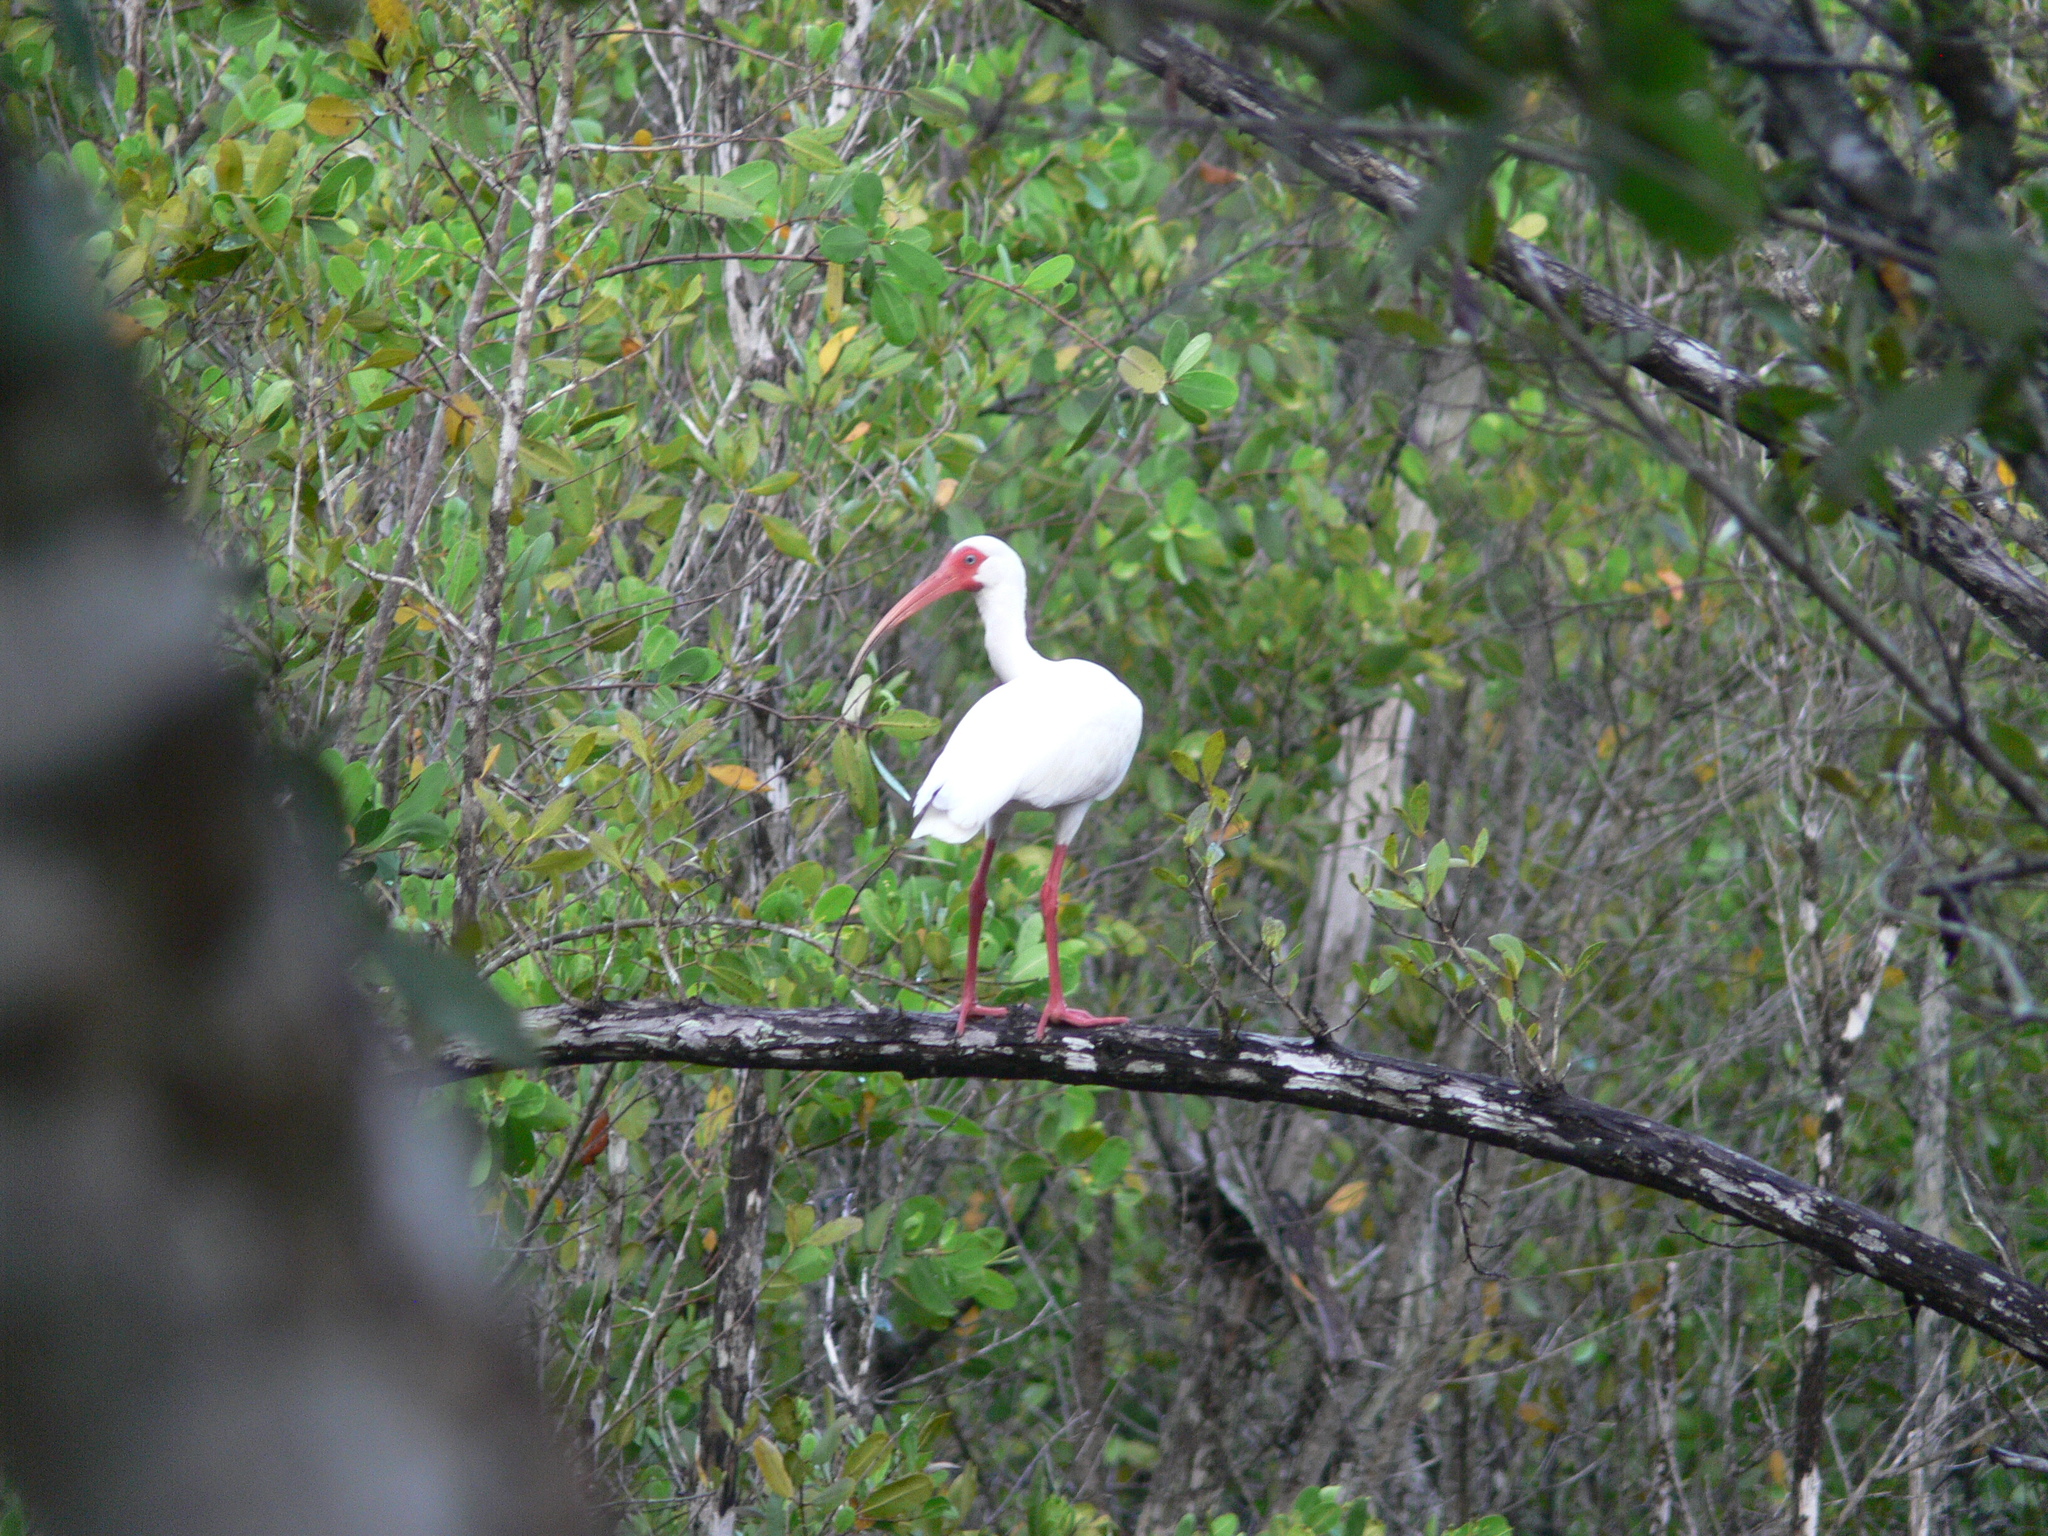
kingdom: Animalia
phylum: Chordata
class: Aves
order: Pelecaniformes
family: Threskiornithidae
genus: Eudocimus
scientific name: Eudocimus albus
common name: White ibis
